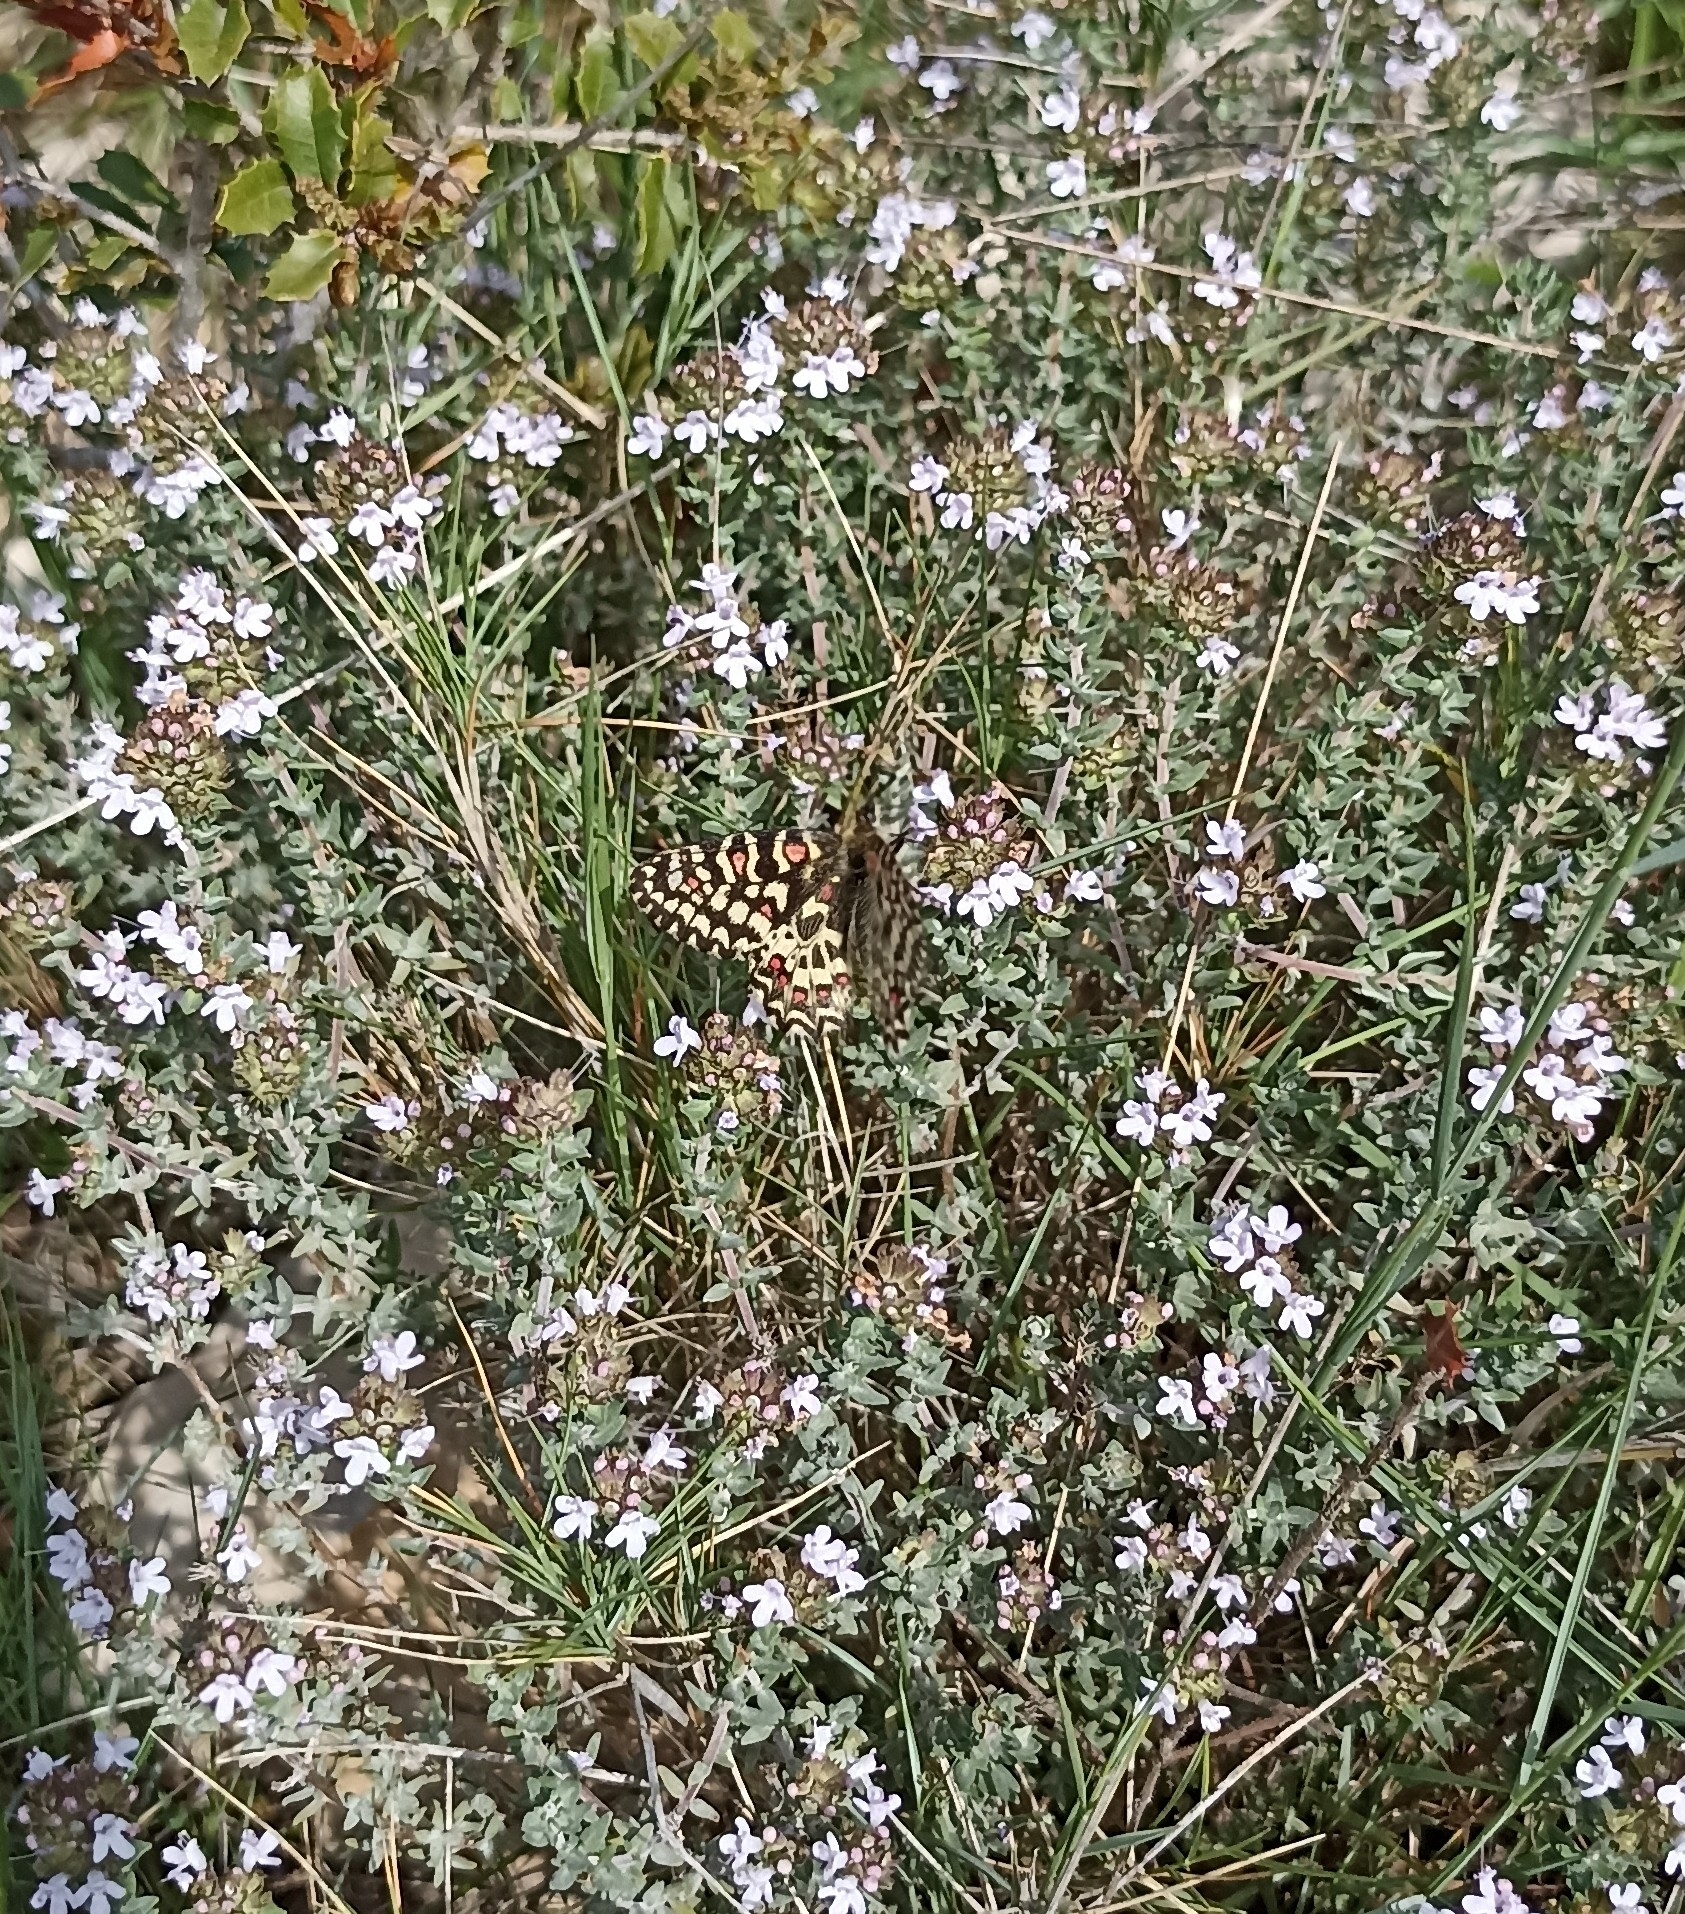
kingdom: Animalia
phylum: Arthropoda
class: Insecta
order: Lepidoptera
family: Papilionidae
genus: Zerynthia
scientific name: Zerynthia rumina
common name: Spanish festoon
